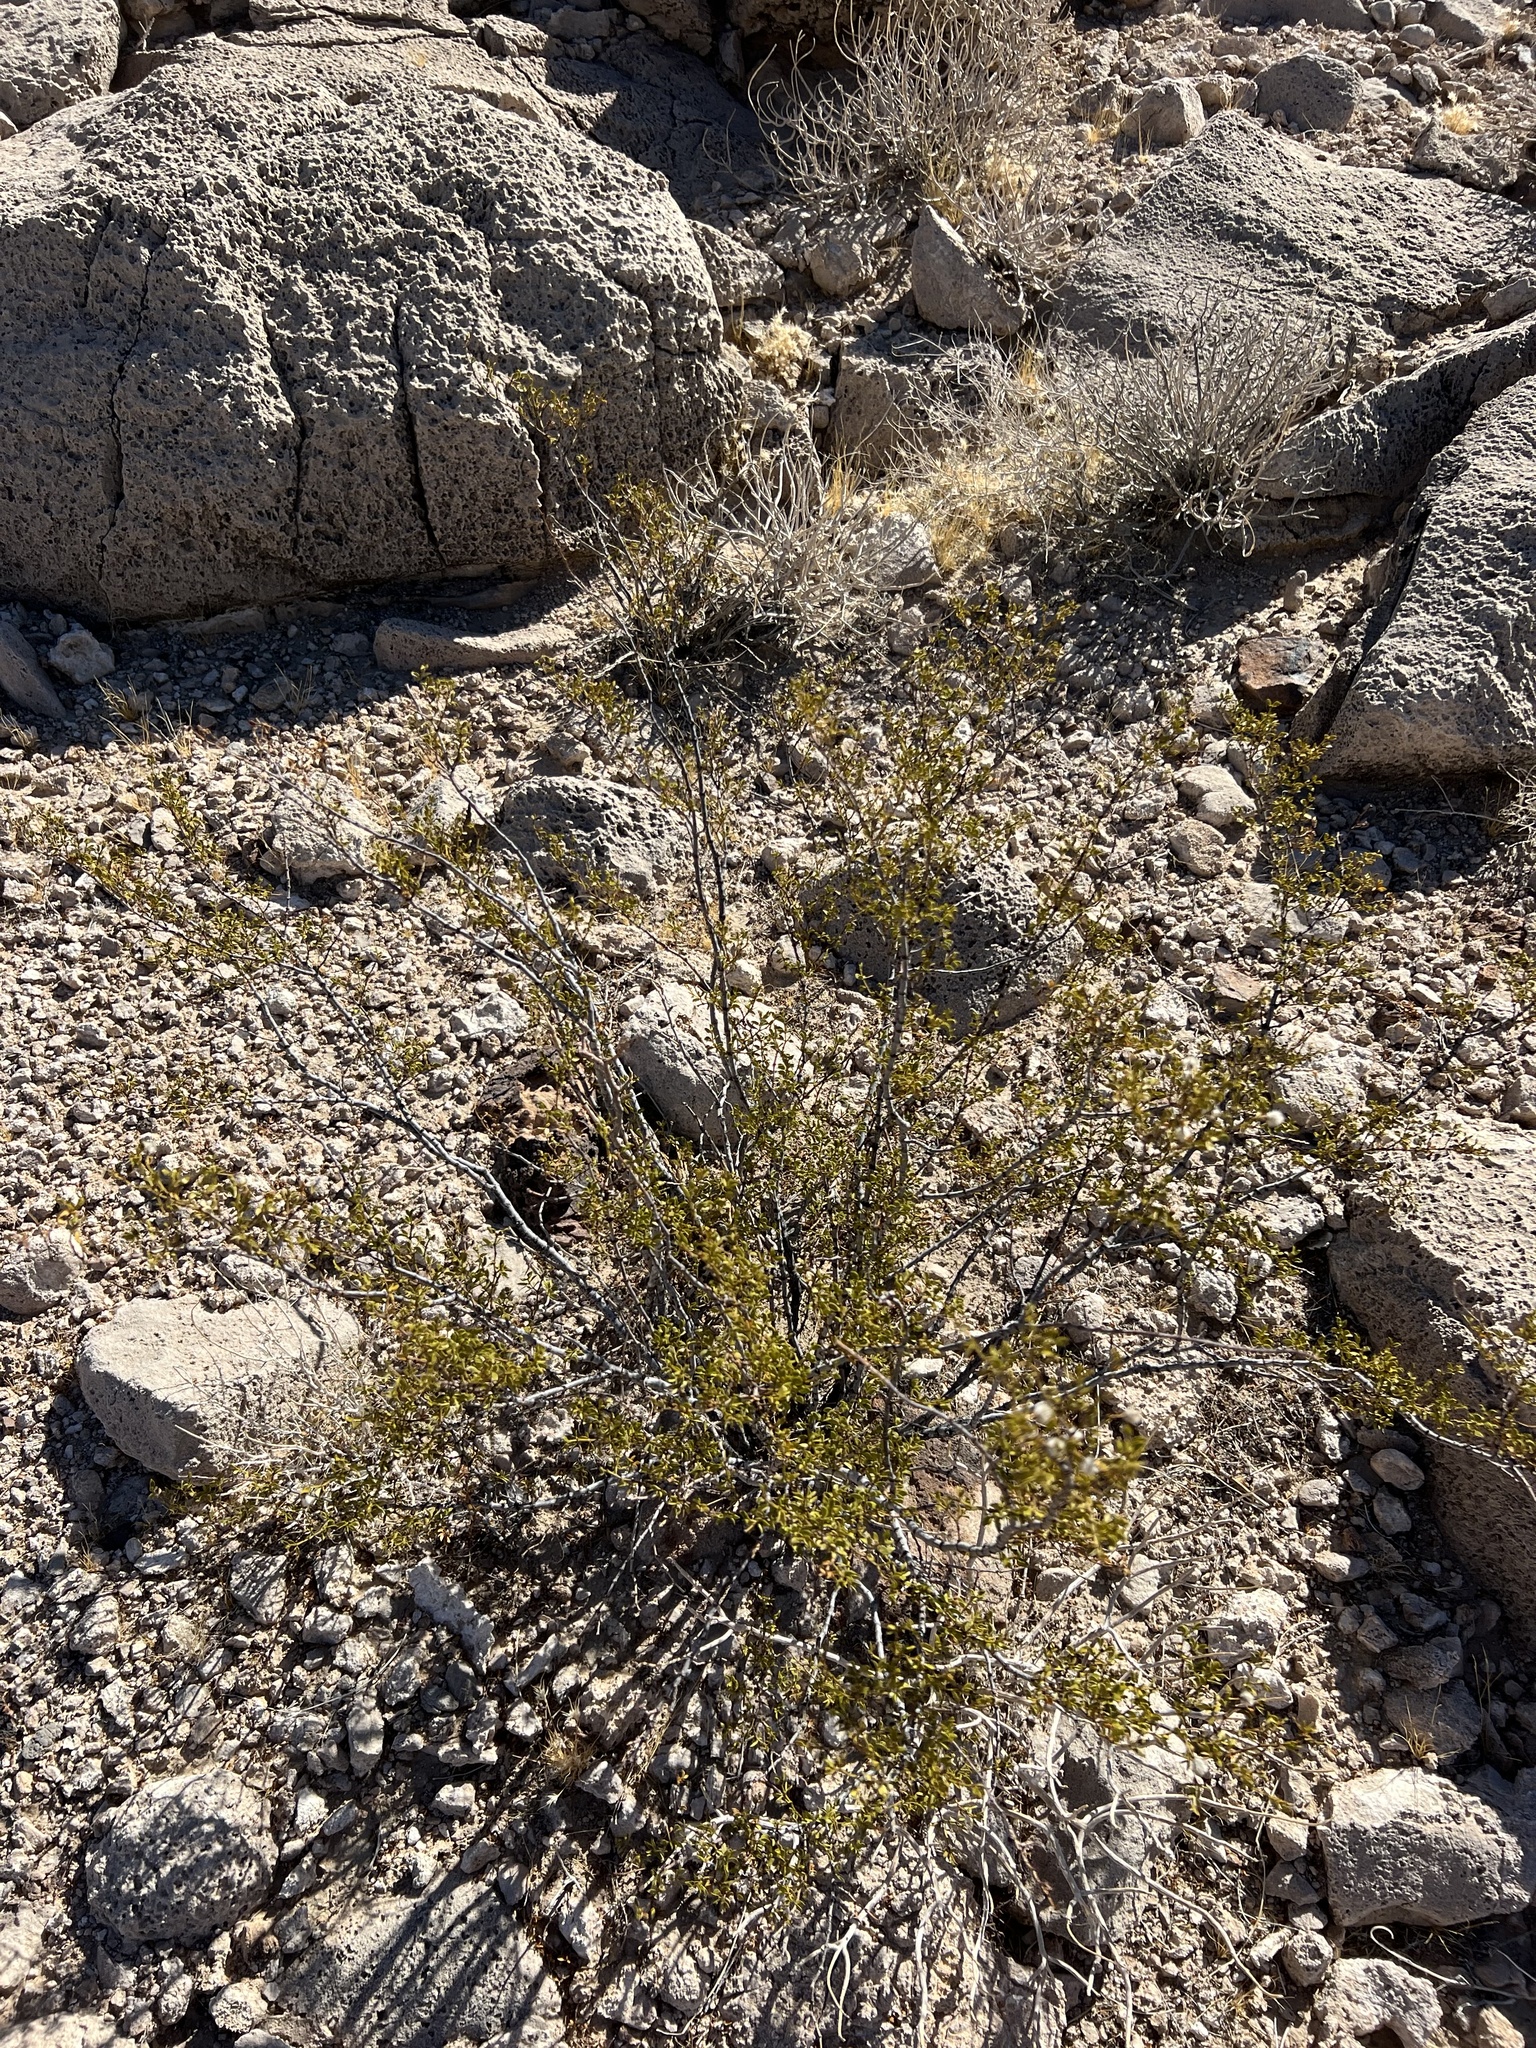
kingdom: Plantae
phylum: Tracheophyta
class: Magnoliopsida
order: Zygophyllales
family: Zygophyllaceae
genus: Larrea
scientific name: Larrea tridentata
